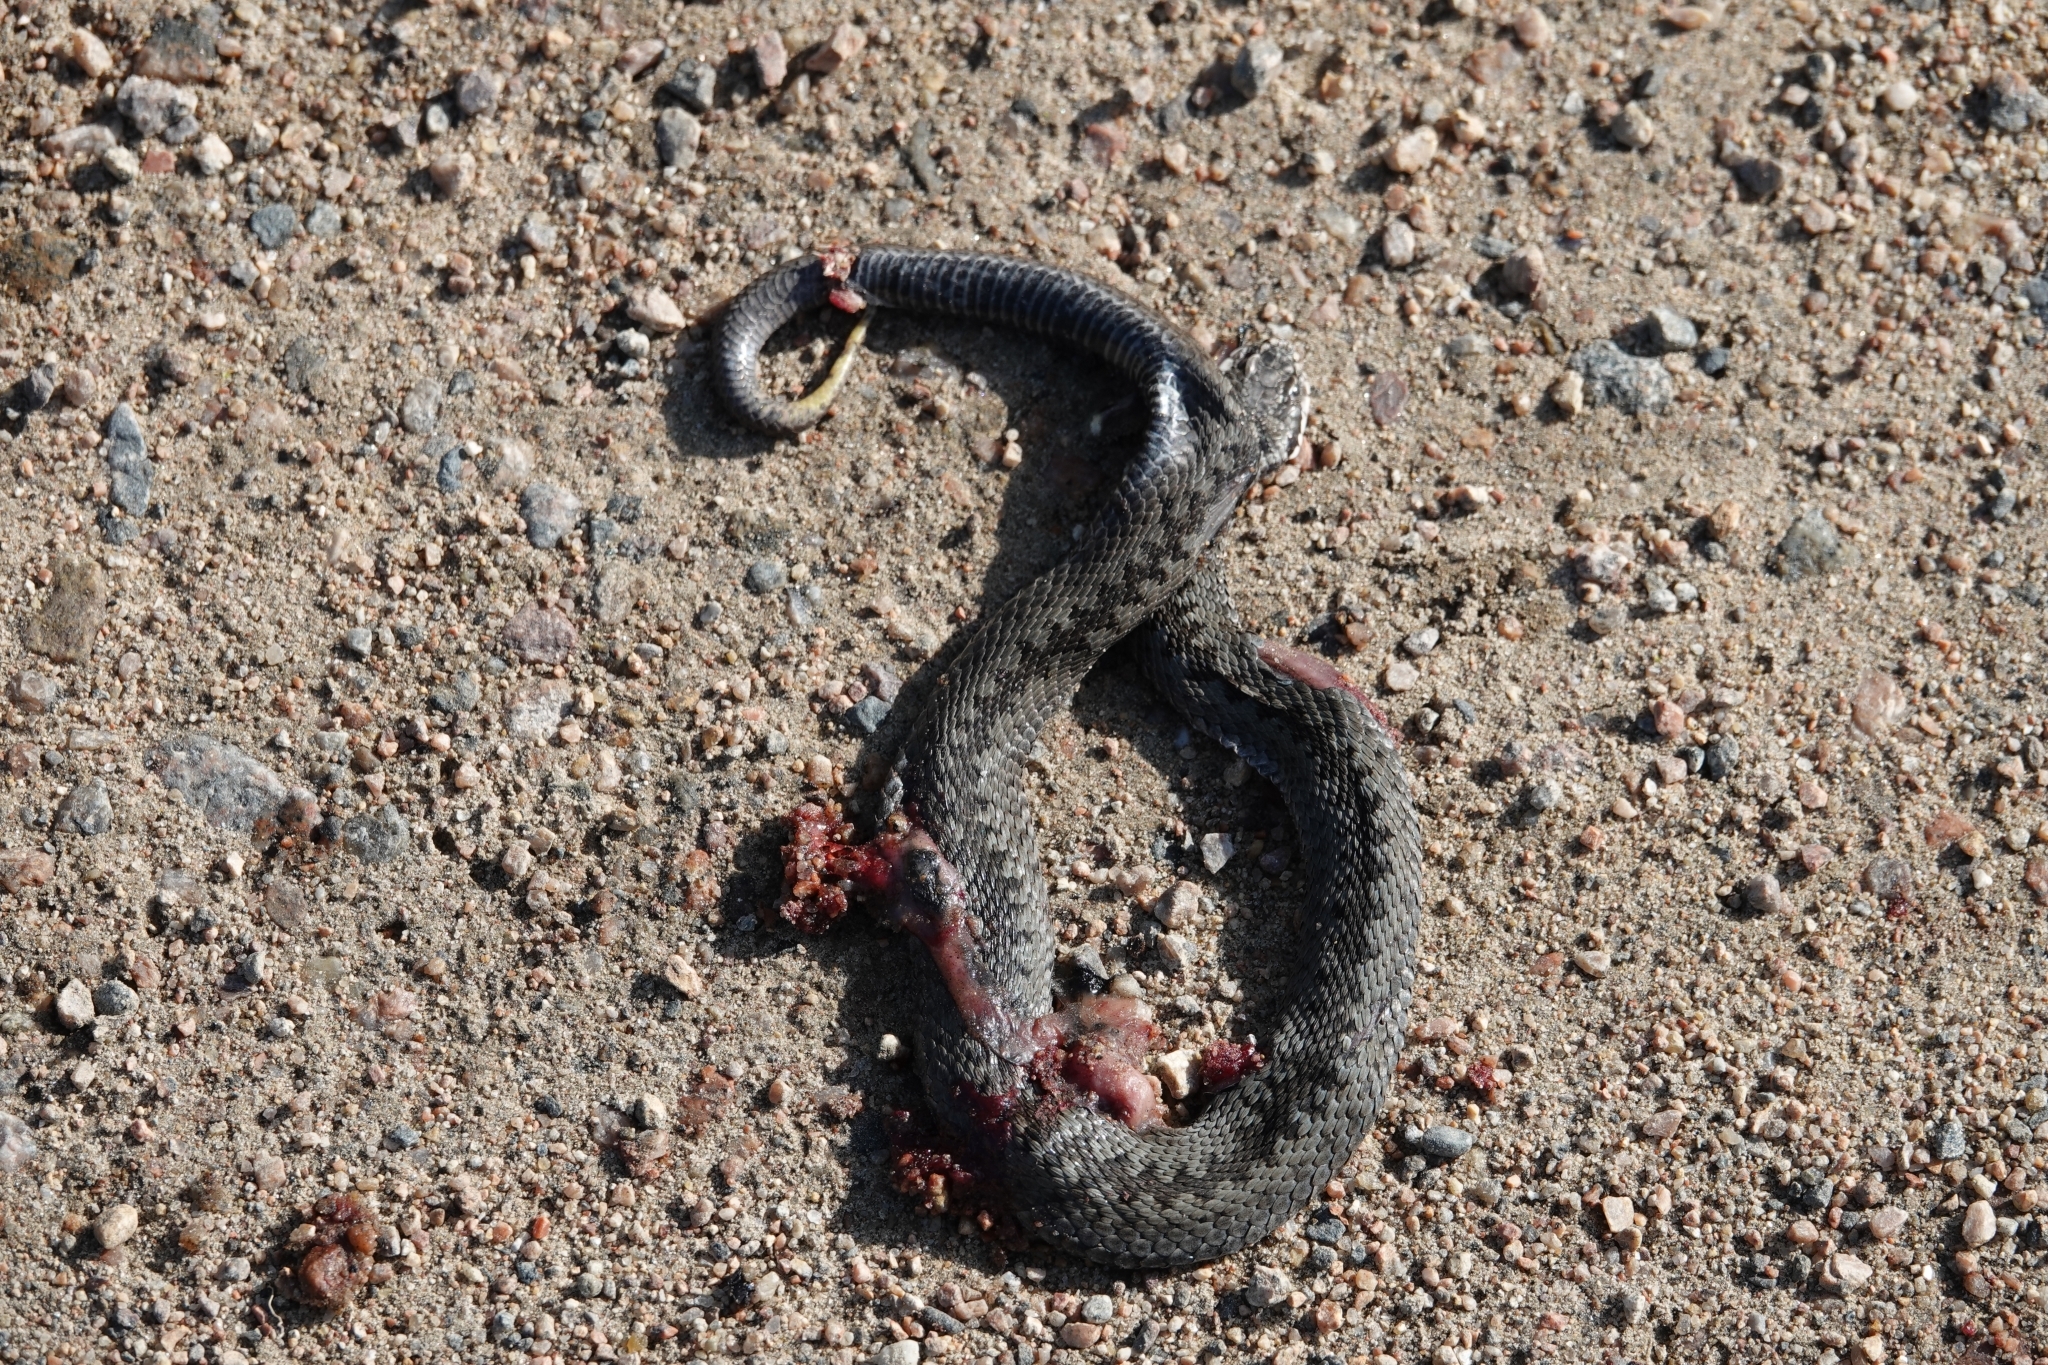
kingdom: Animalia
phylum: Chordata
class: Squamata
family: Viperidae
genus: Vipera
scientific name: Vipera berus
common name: Adder
